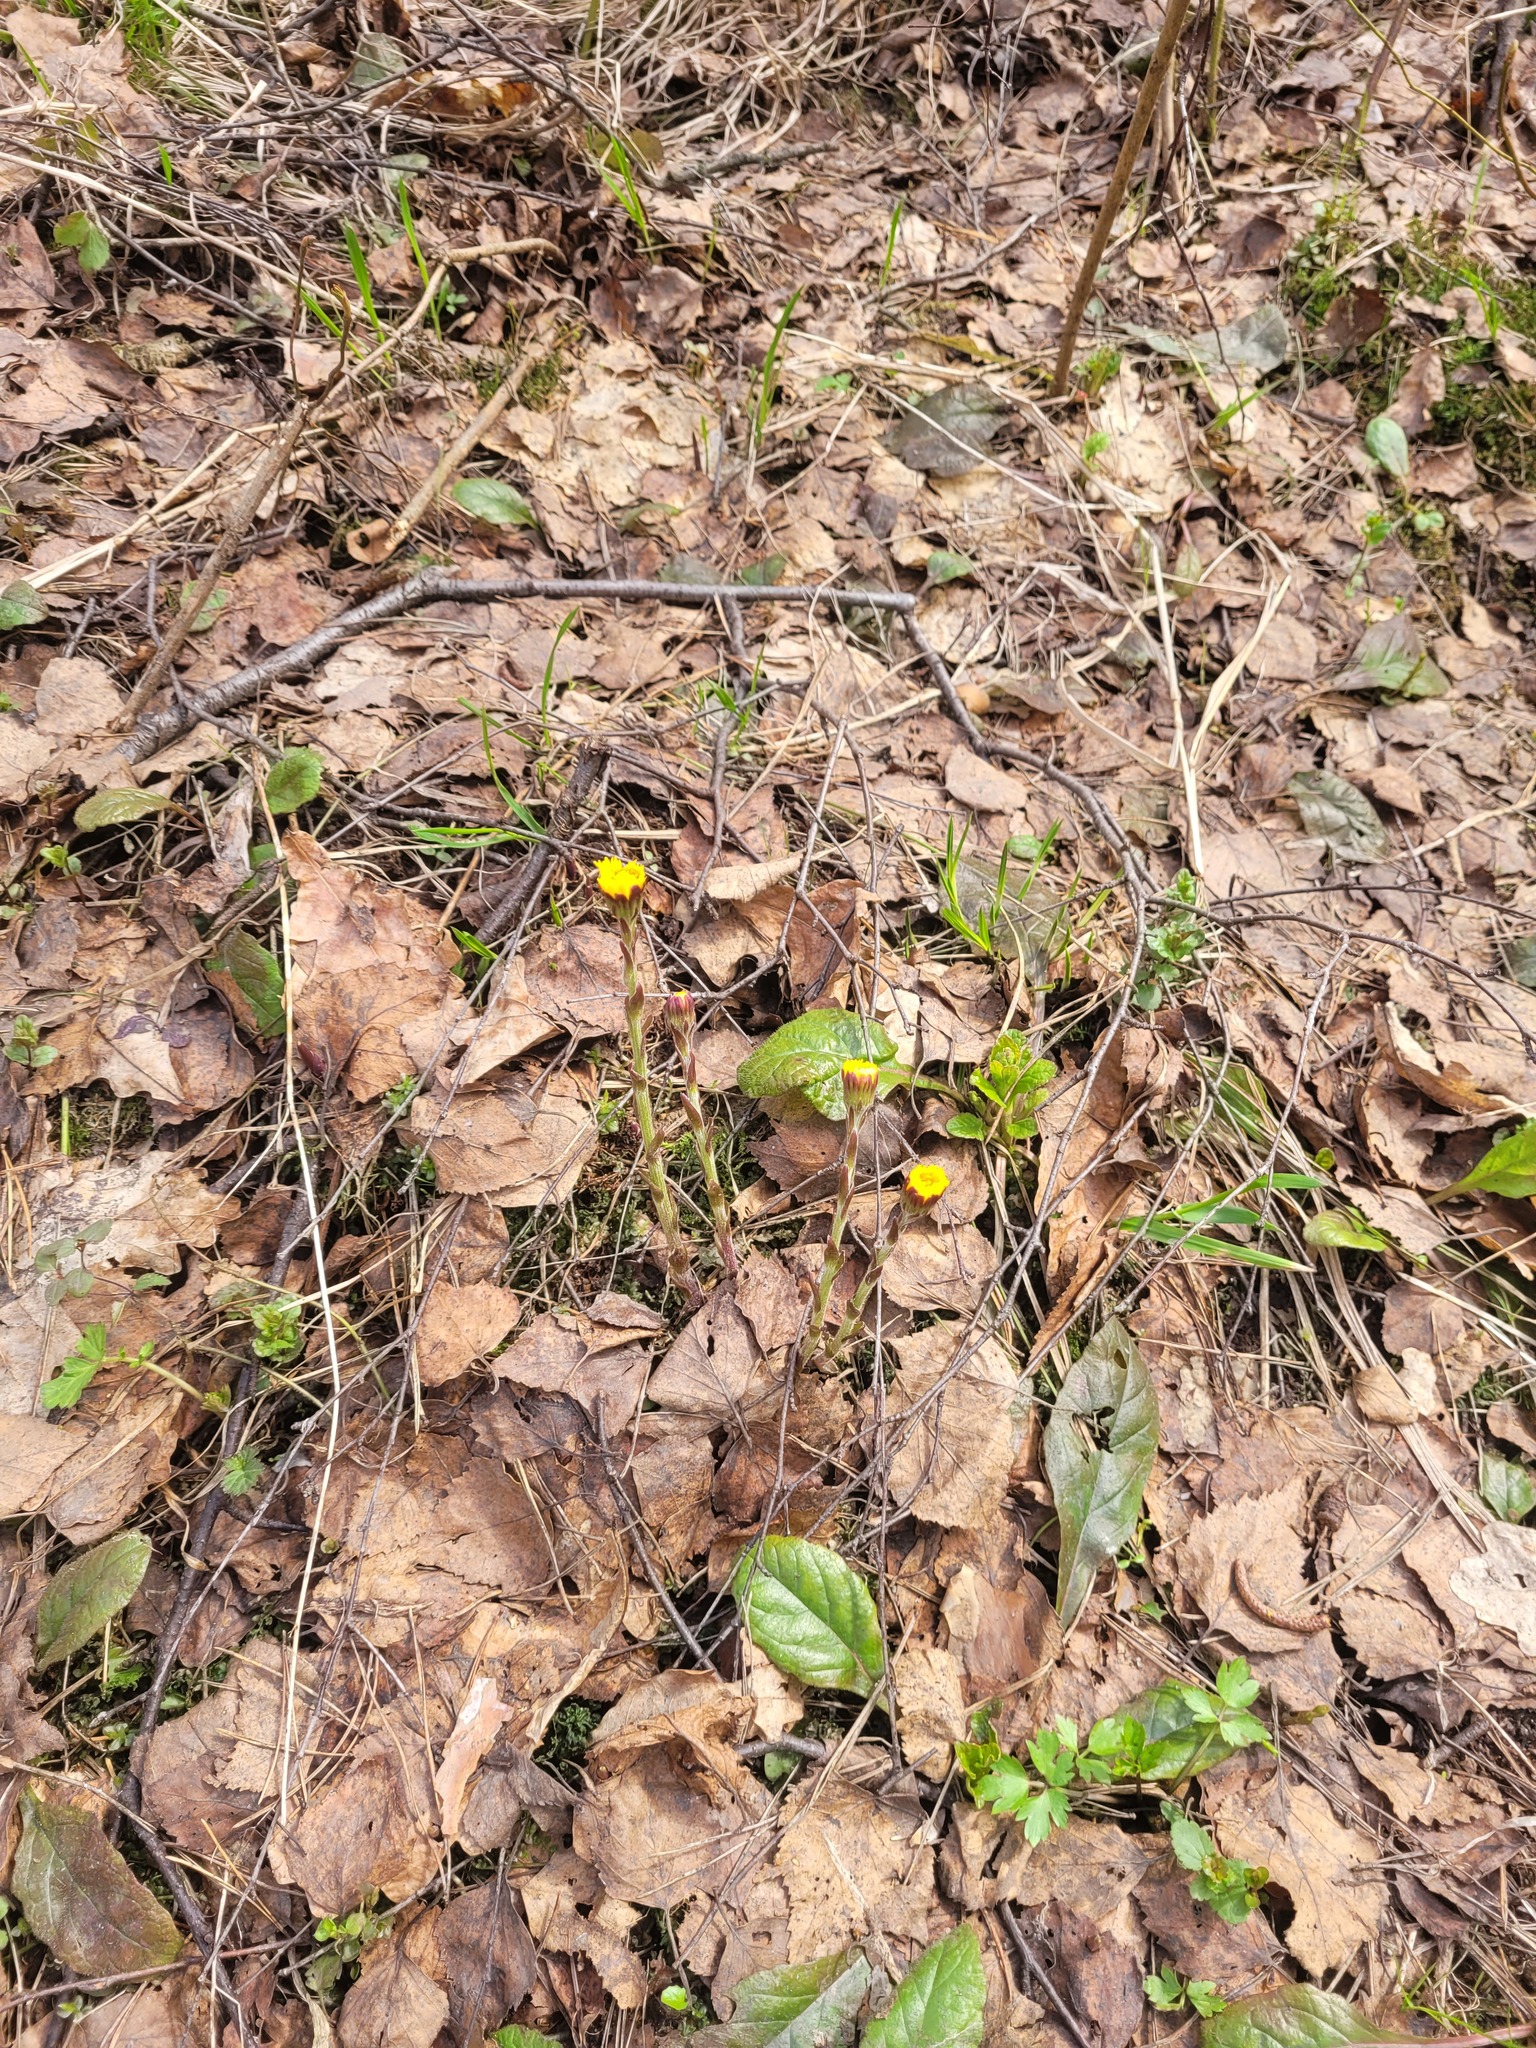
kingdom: Plantae
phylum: Tracheophyta
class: Magnoliopsida
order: Asterales
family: Asteraceae
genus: Tussilago
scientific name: Tussilago farfara
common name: Coltsfoot
